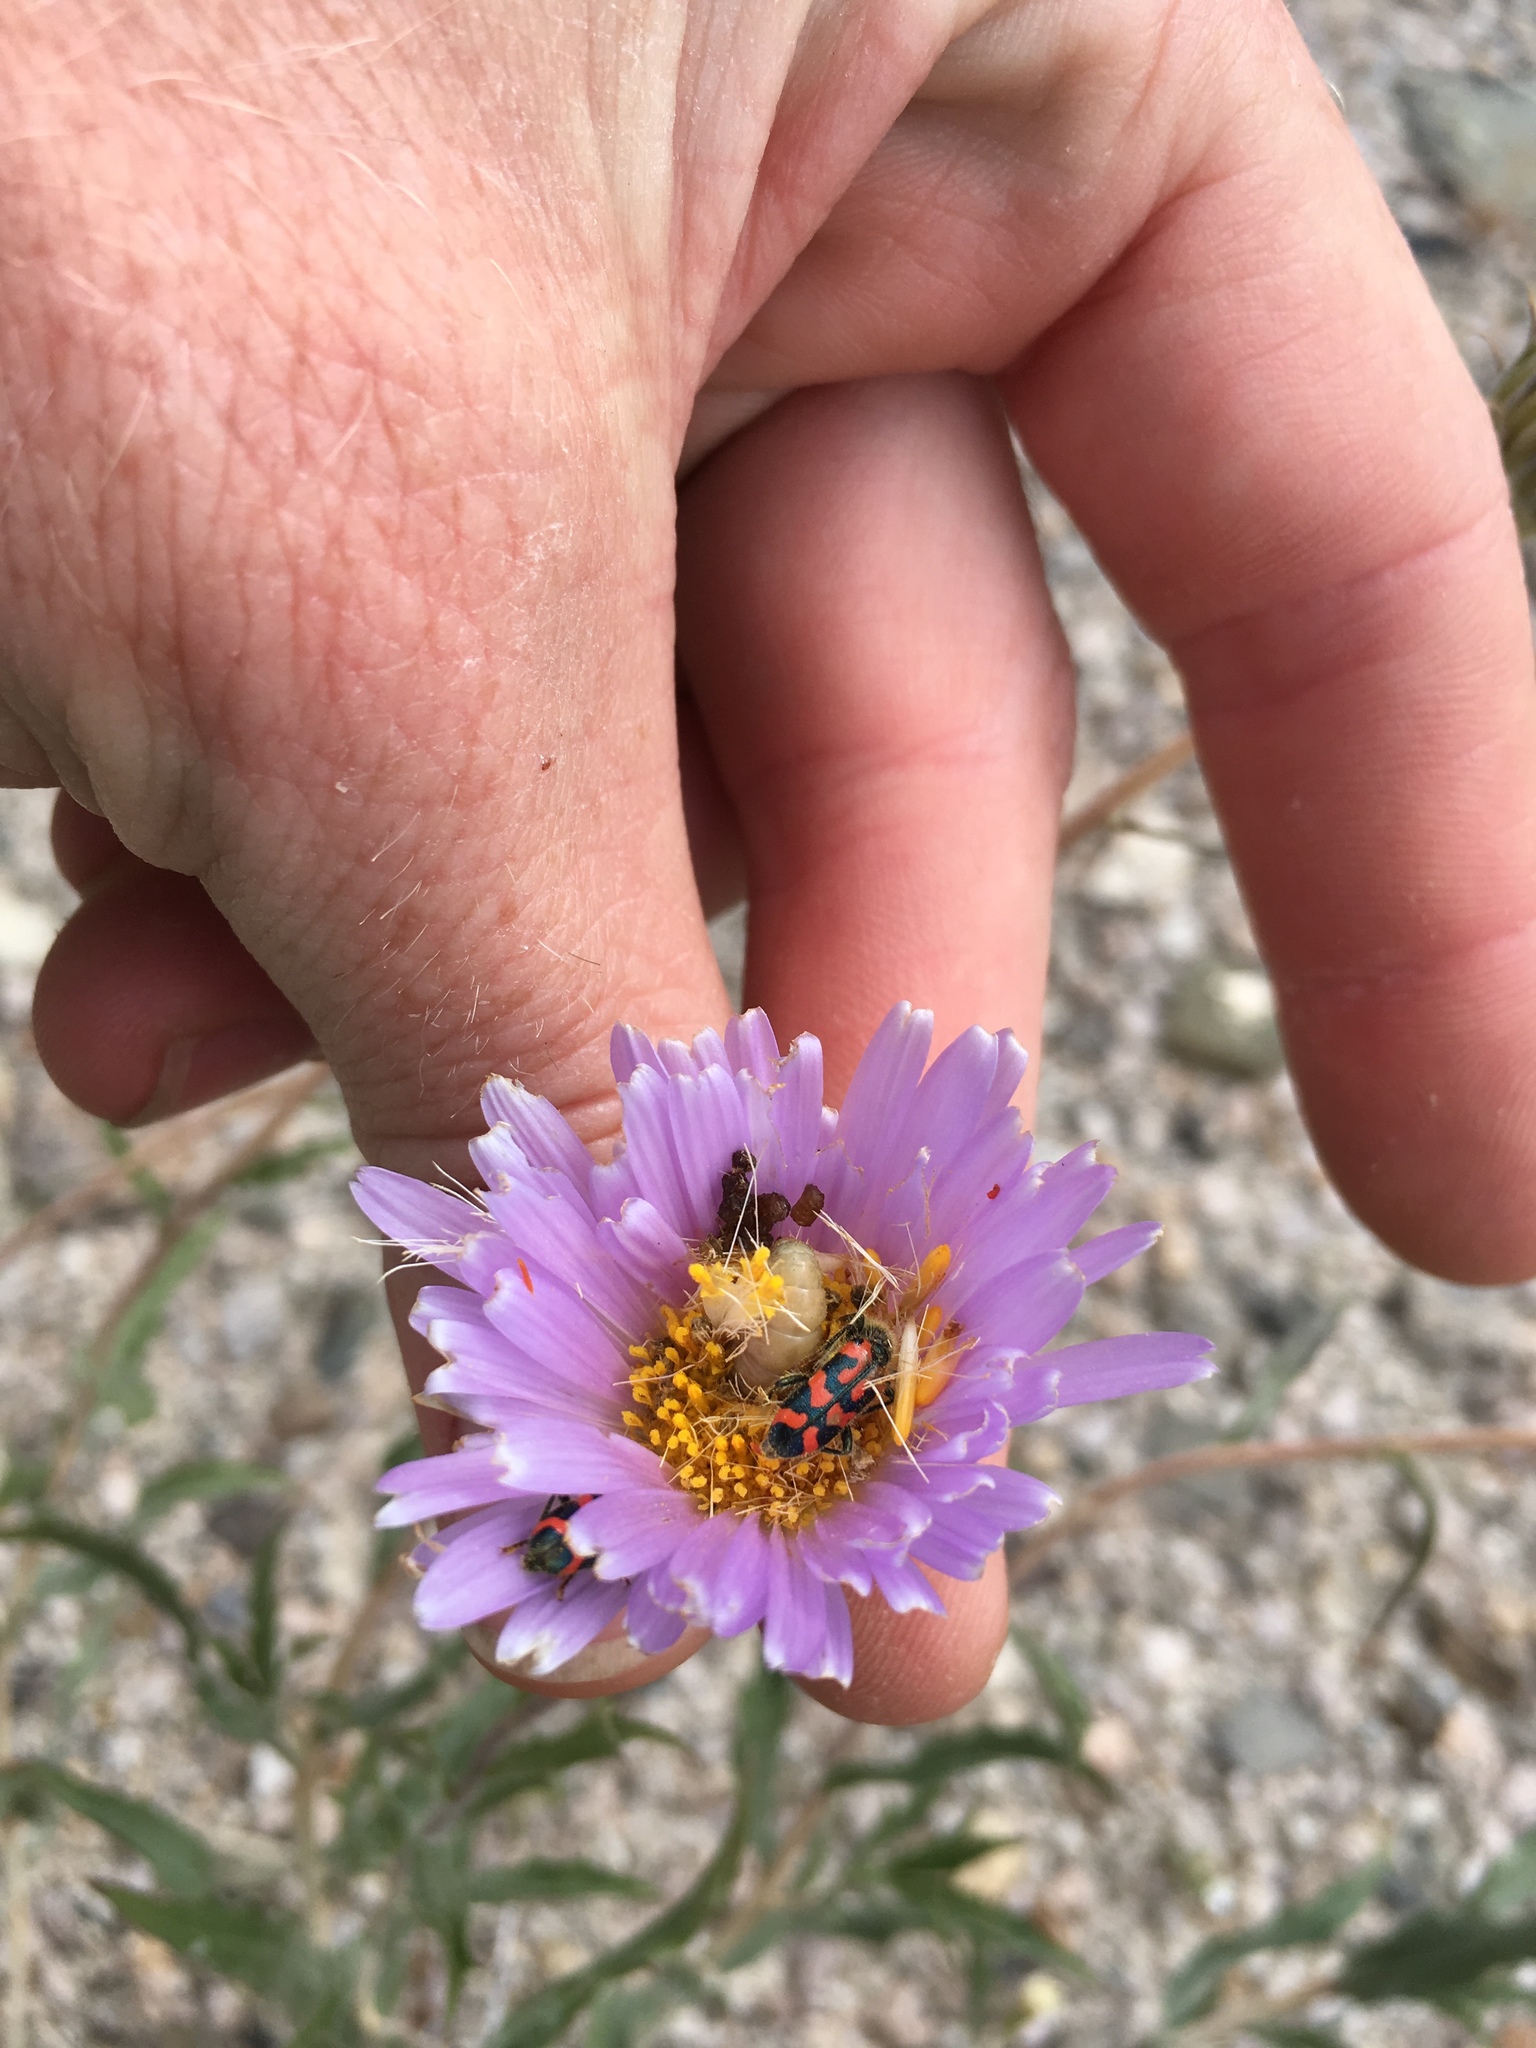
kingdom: Animalia
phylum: Arthropoda
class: Insecta
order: Coleoptera
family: Cleridae
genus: Trichodes
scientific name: Trichodes ornatus
